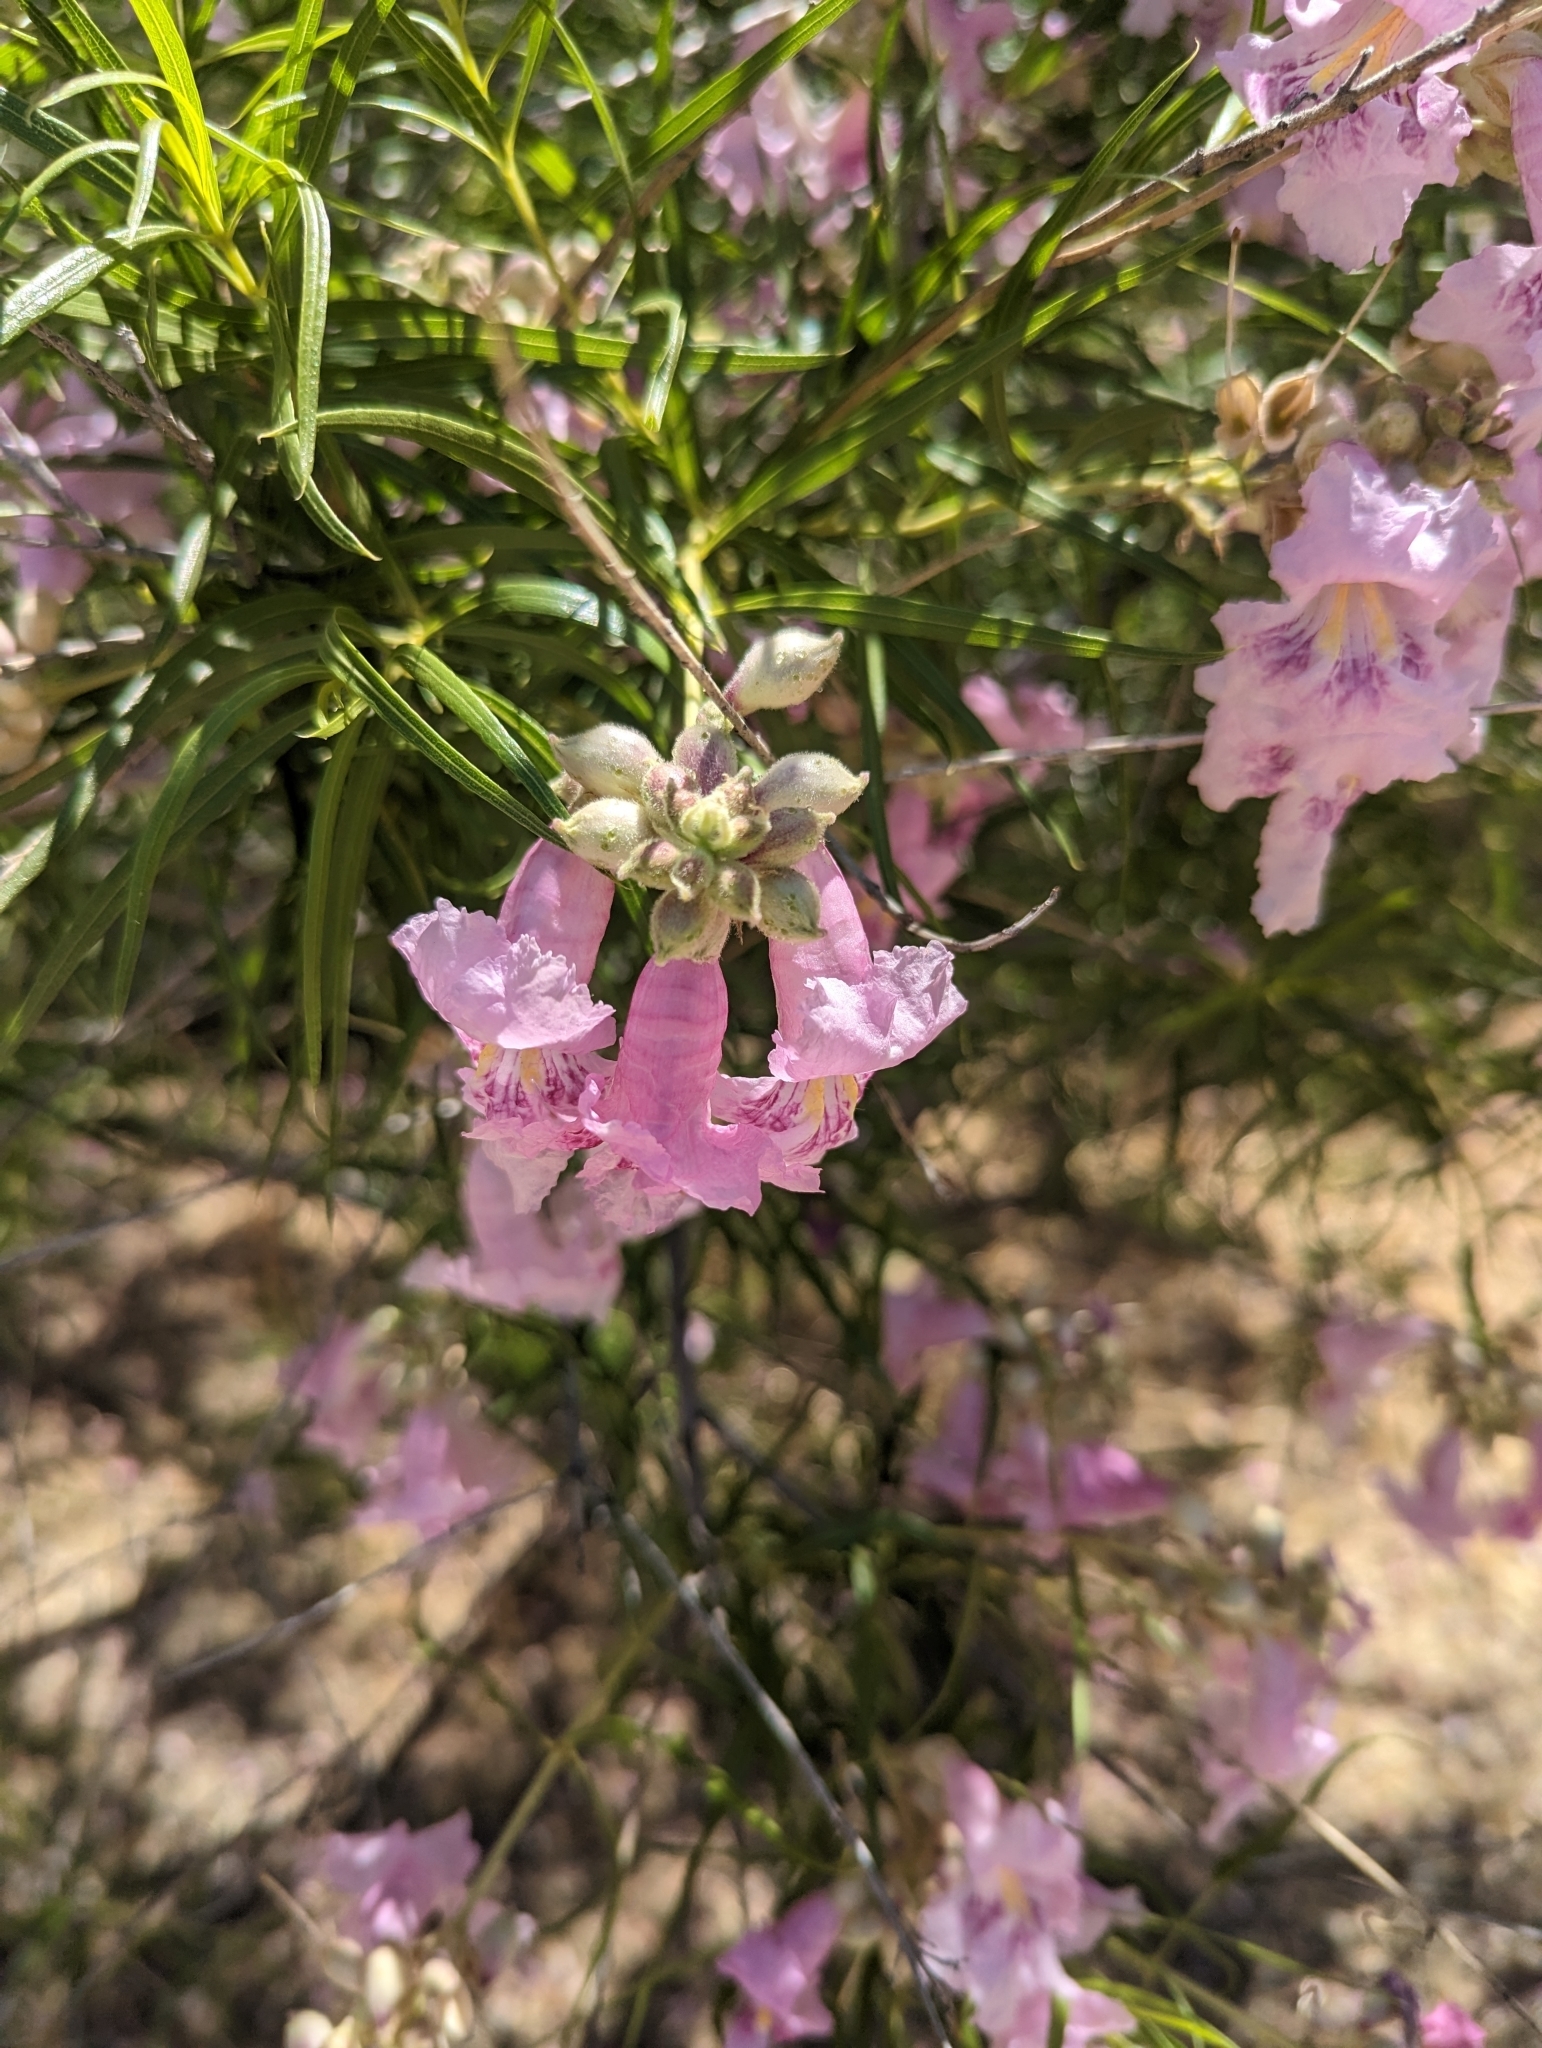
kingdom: Plantae
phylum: Tracheophyta
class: Magnoliopsida
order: Lamiales
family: Bignoniaceae
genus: Chilopsis
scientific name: Chilopsis linearis
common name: Desert-willow
